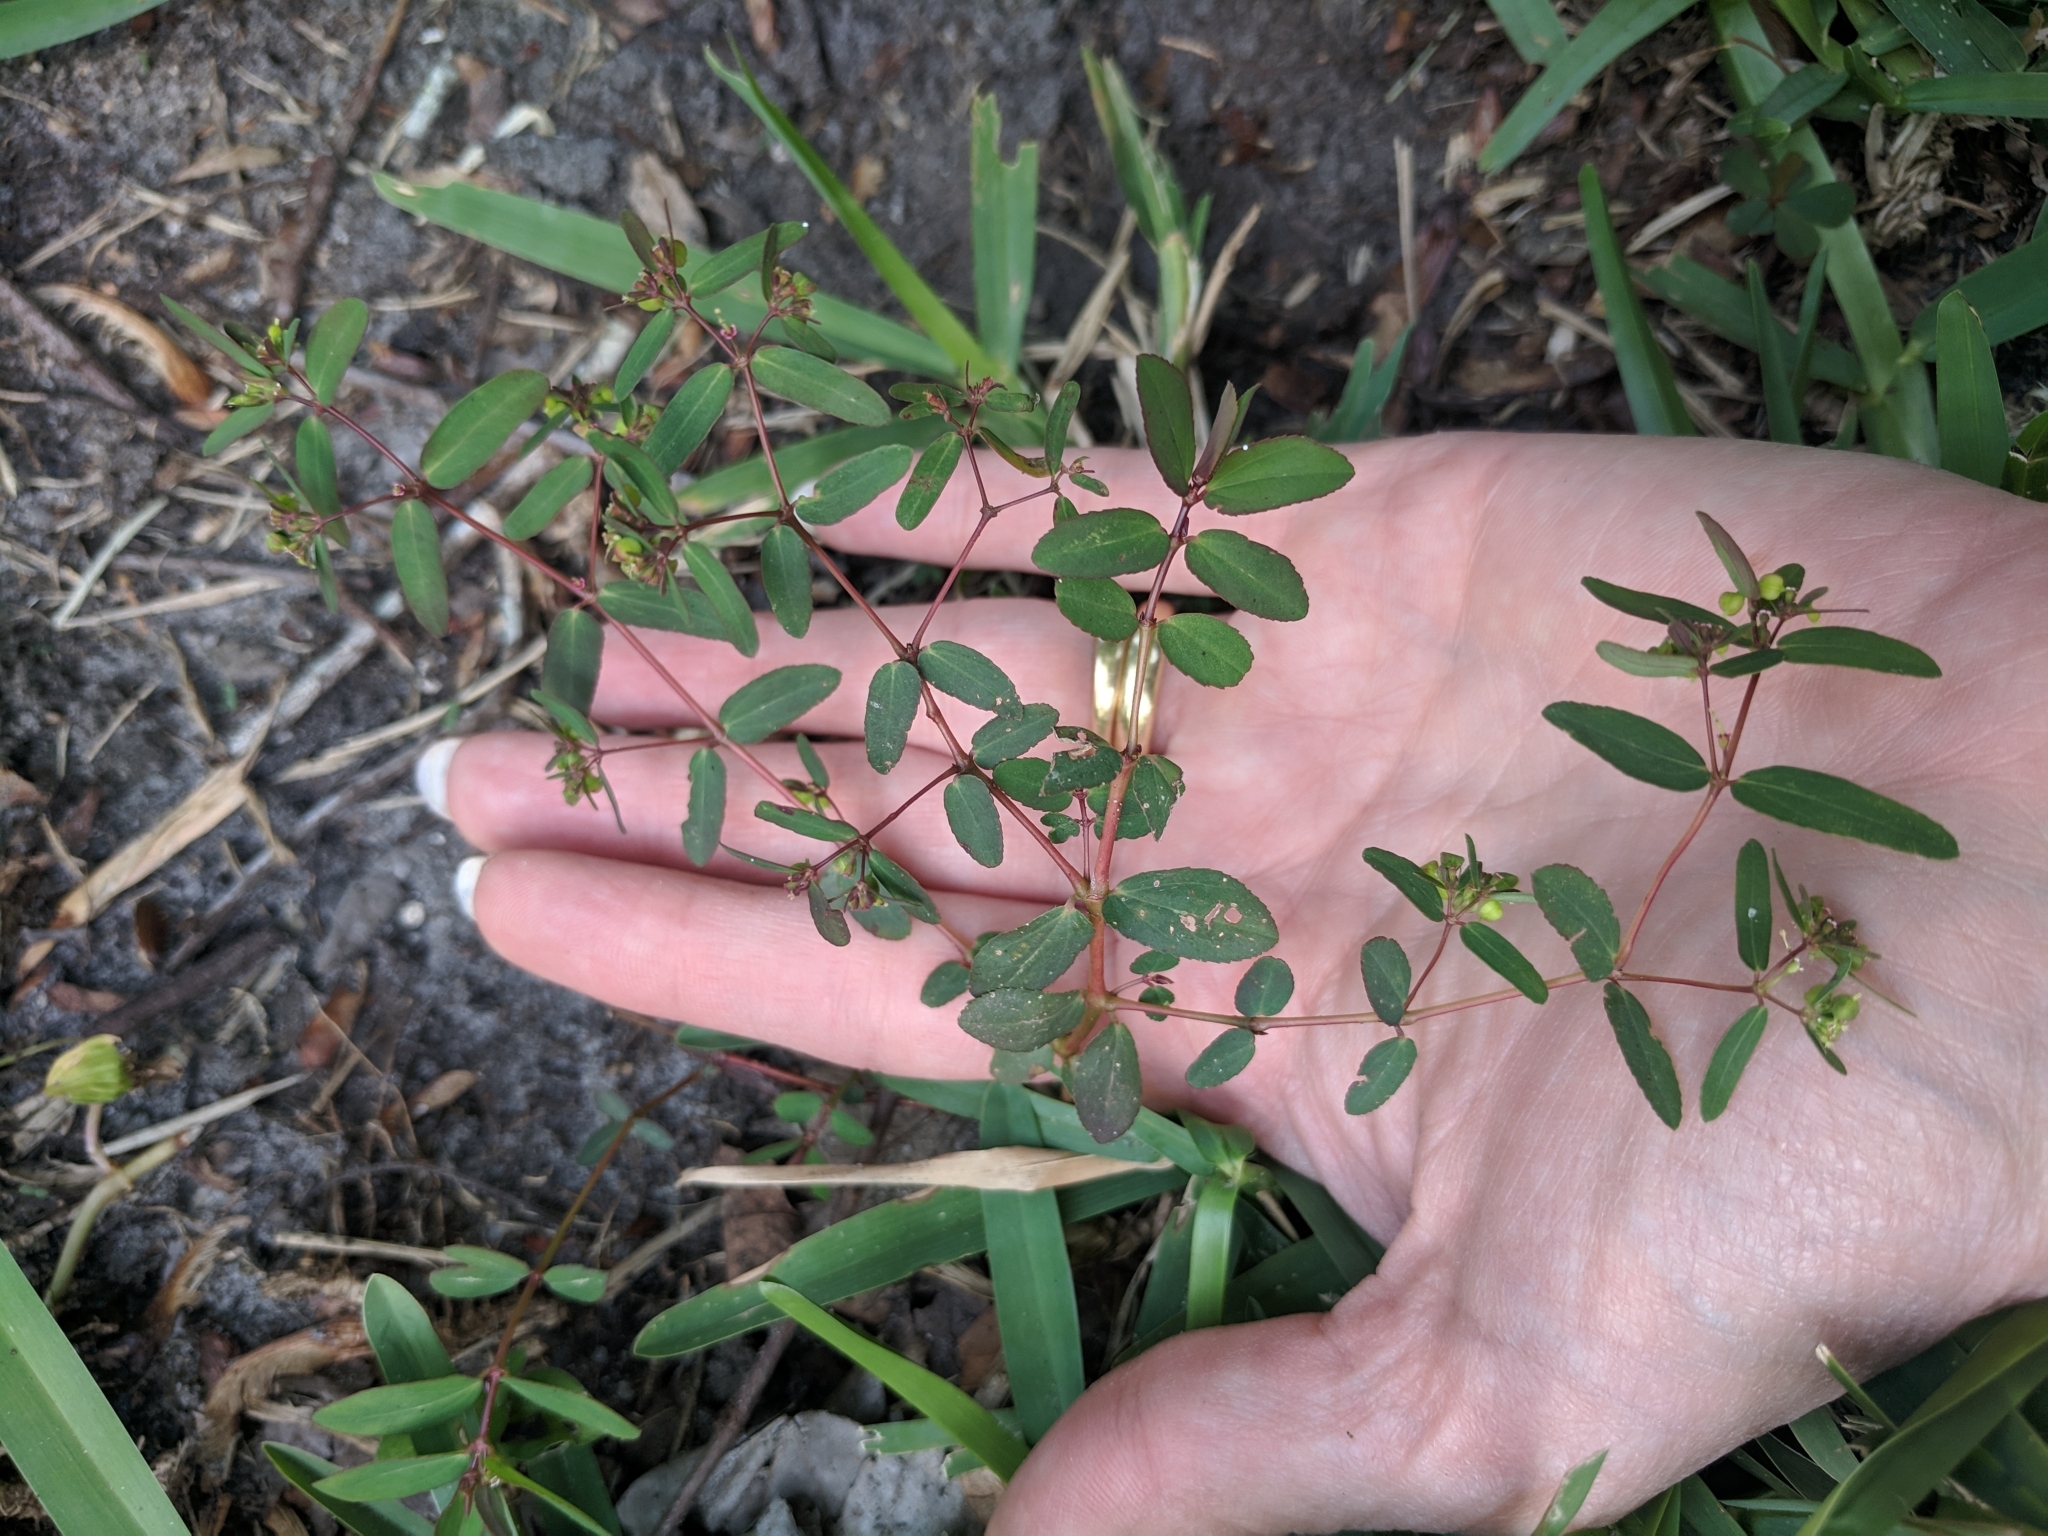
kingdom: Plantae
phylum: Tracheophyta
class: Magnoliopsida
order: Malpighiales
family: Euphorbiaceae
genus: Euphorbia
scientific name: Euphorbia hyssopifolia
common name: Hyssopleaf sandmat
